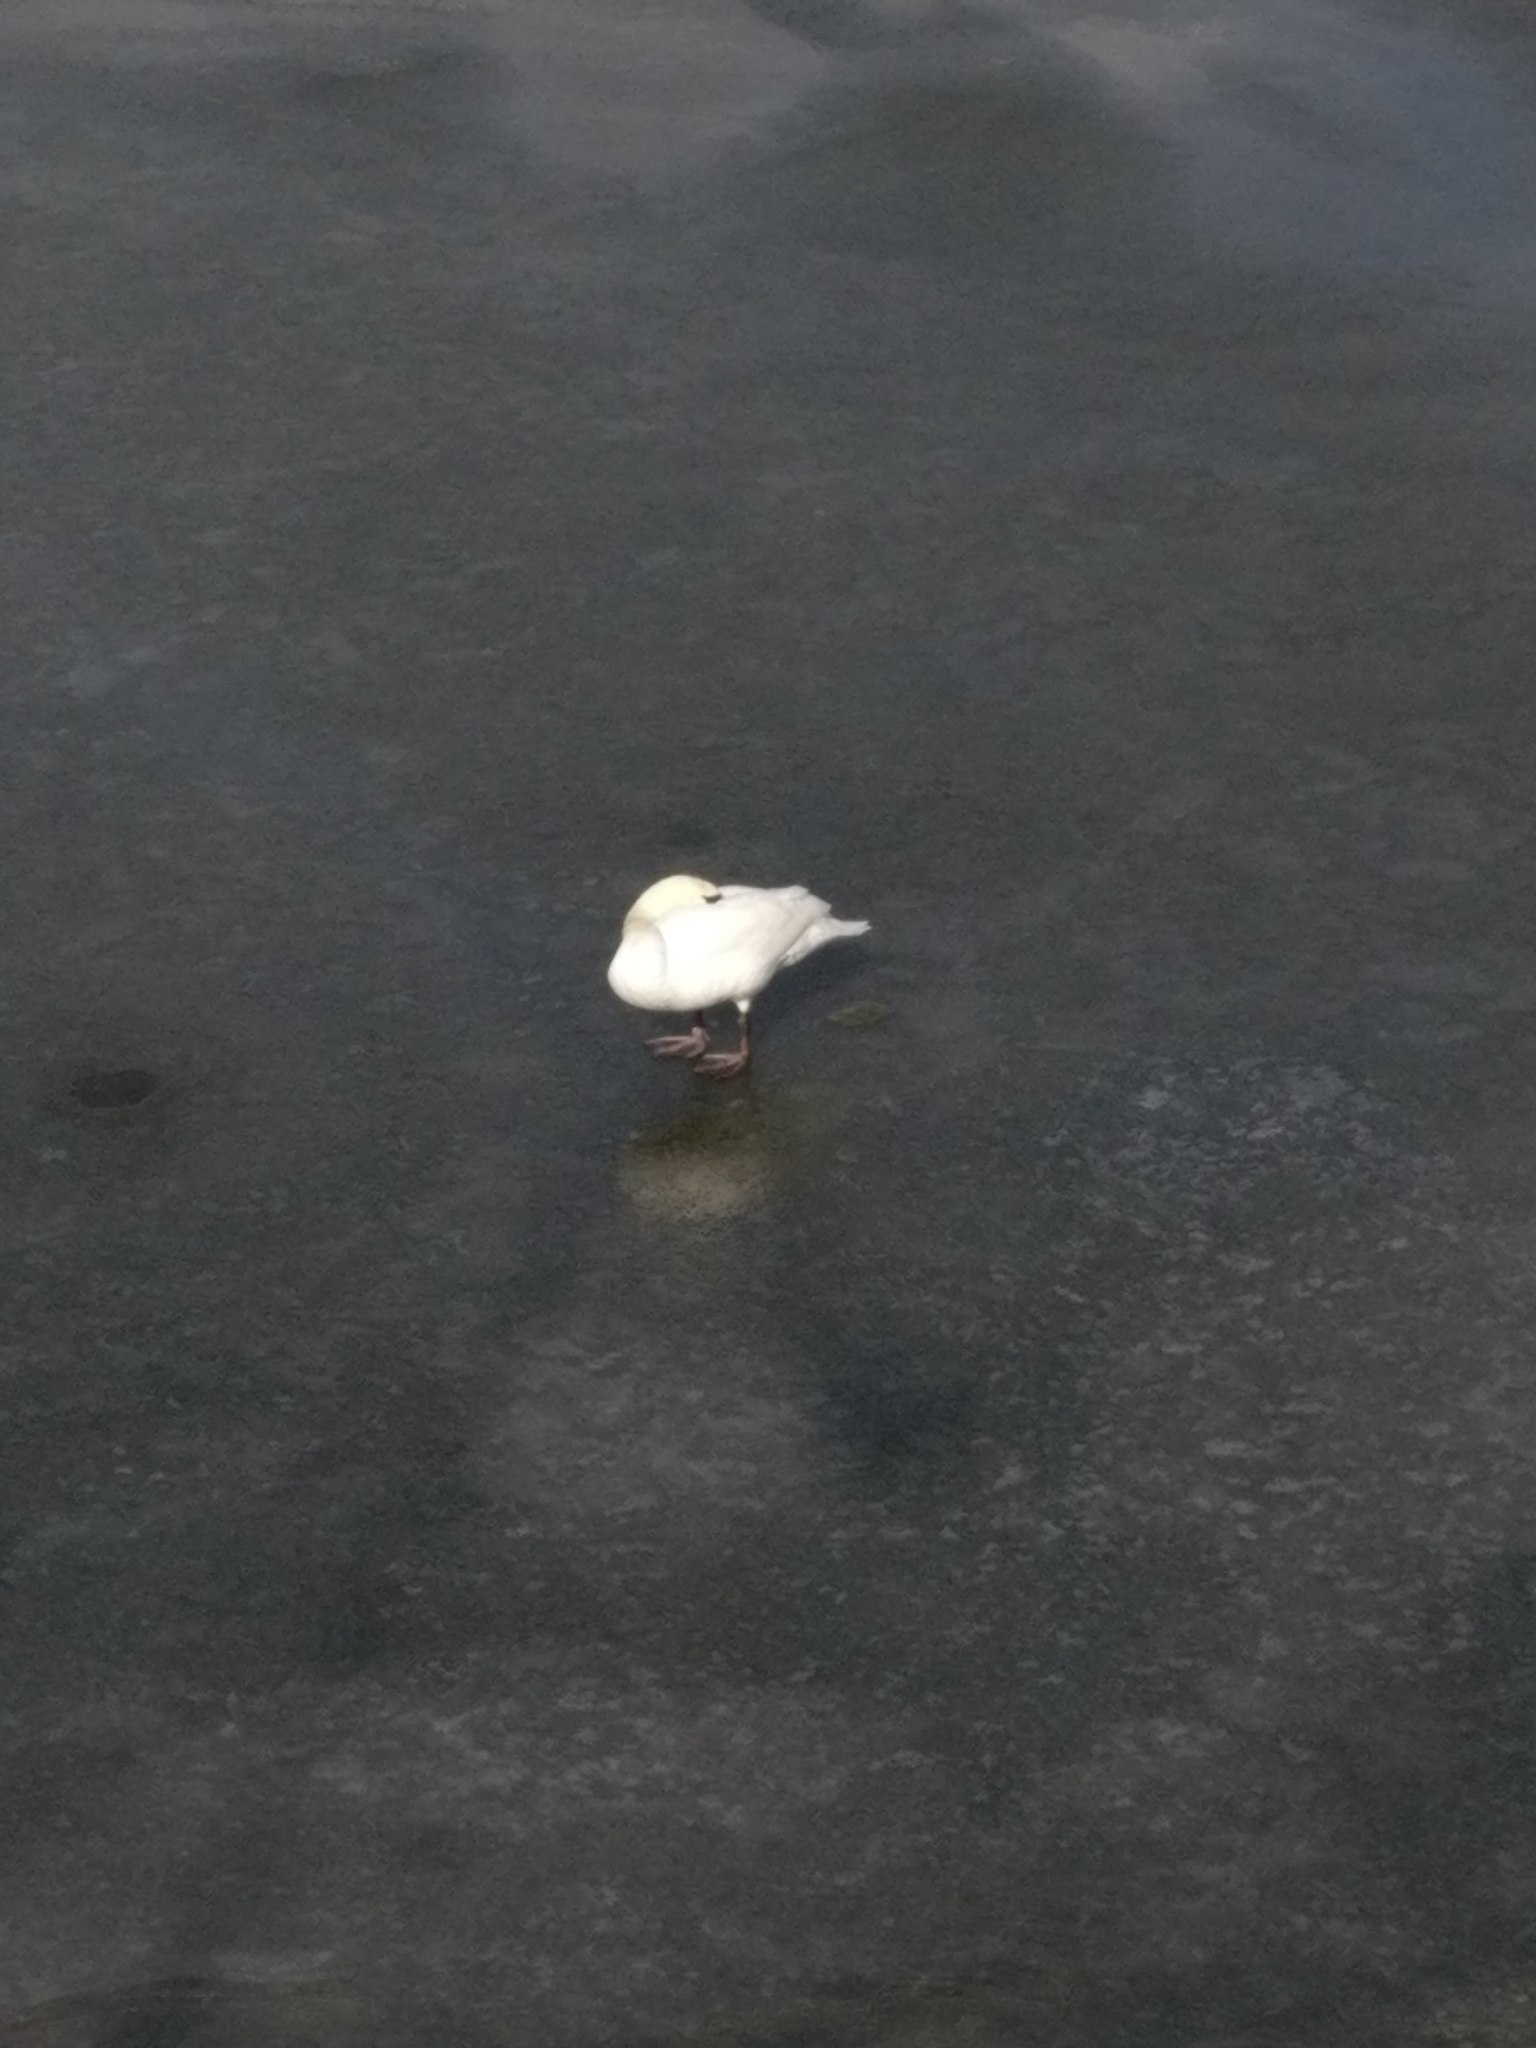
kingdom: Animalia
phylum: Chordata
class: Aves
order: Anseriformes
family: Anatidae
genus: Cygnus
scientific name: Cygnus olor
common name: Mute swan
